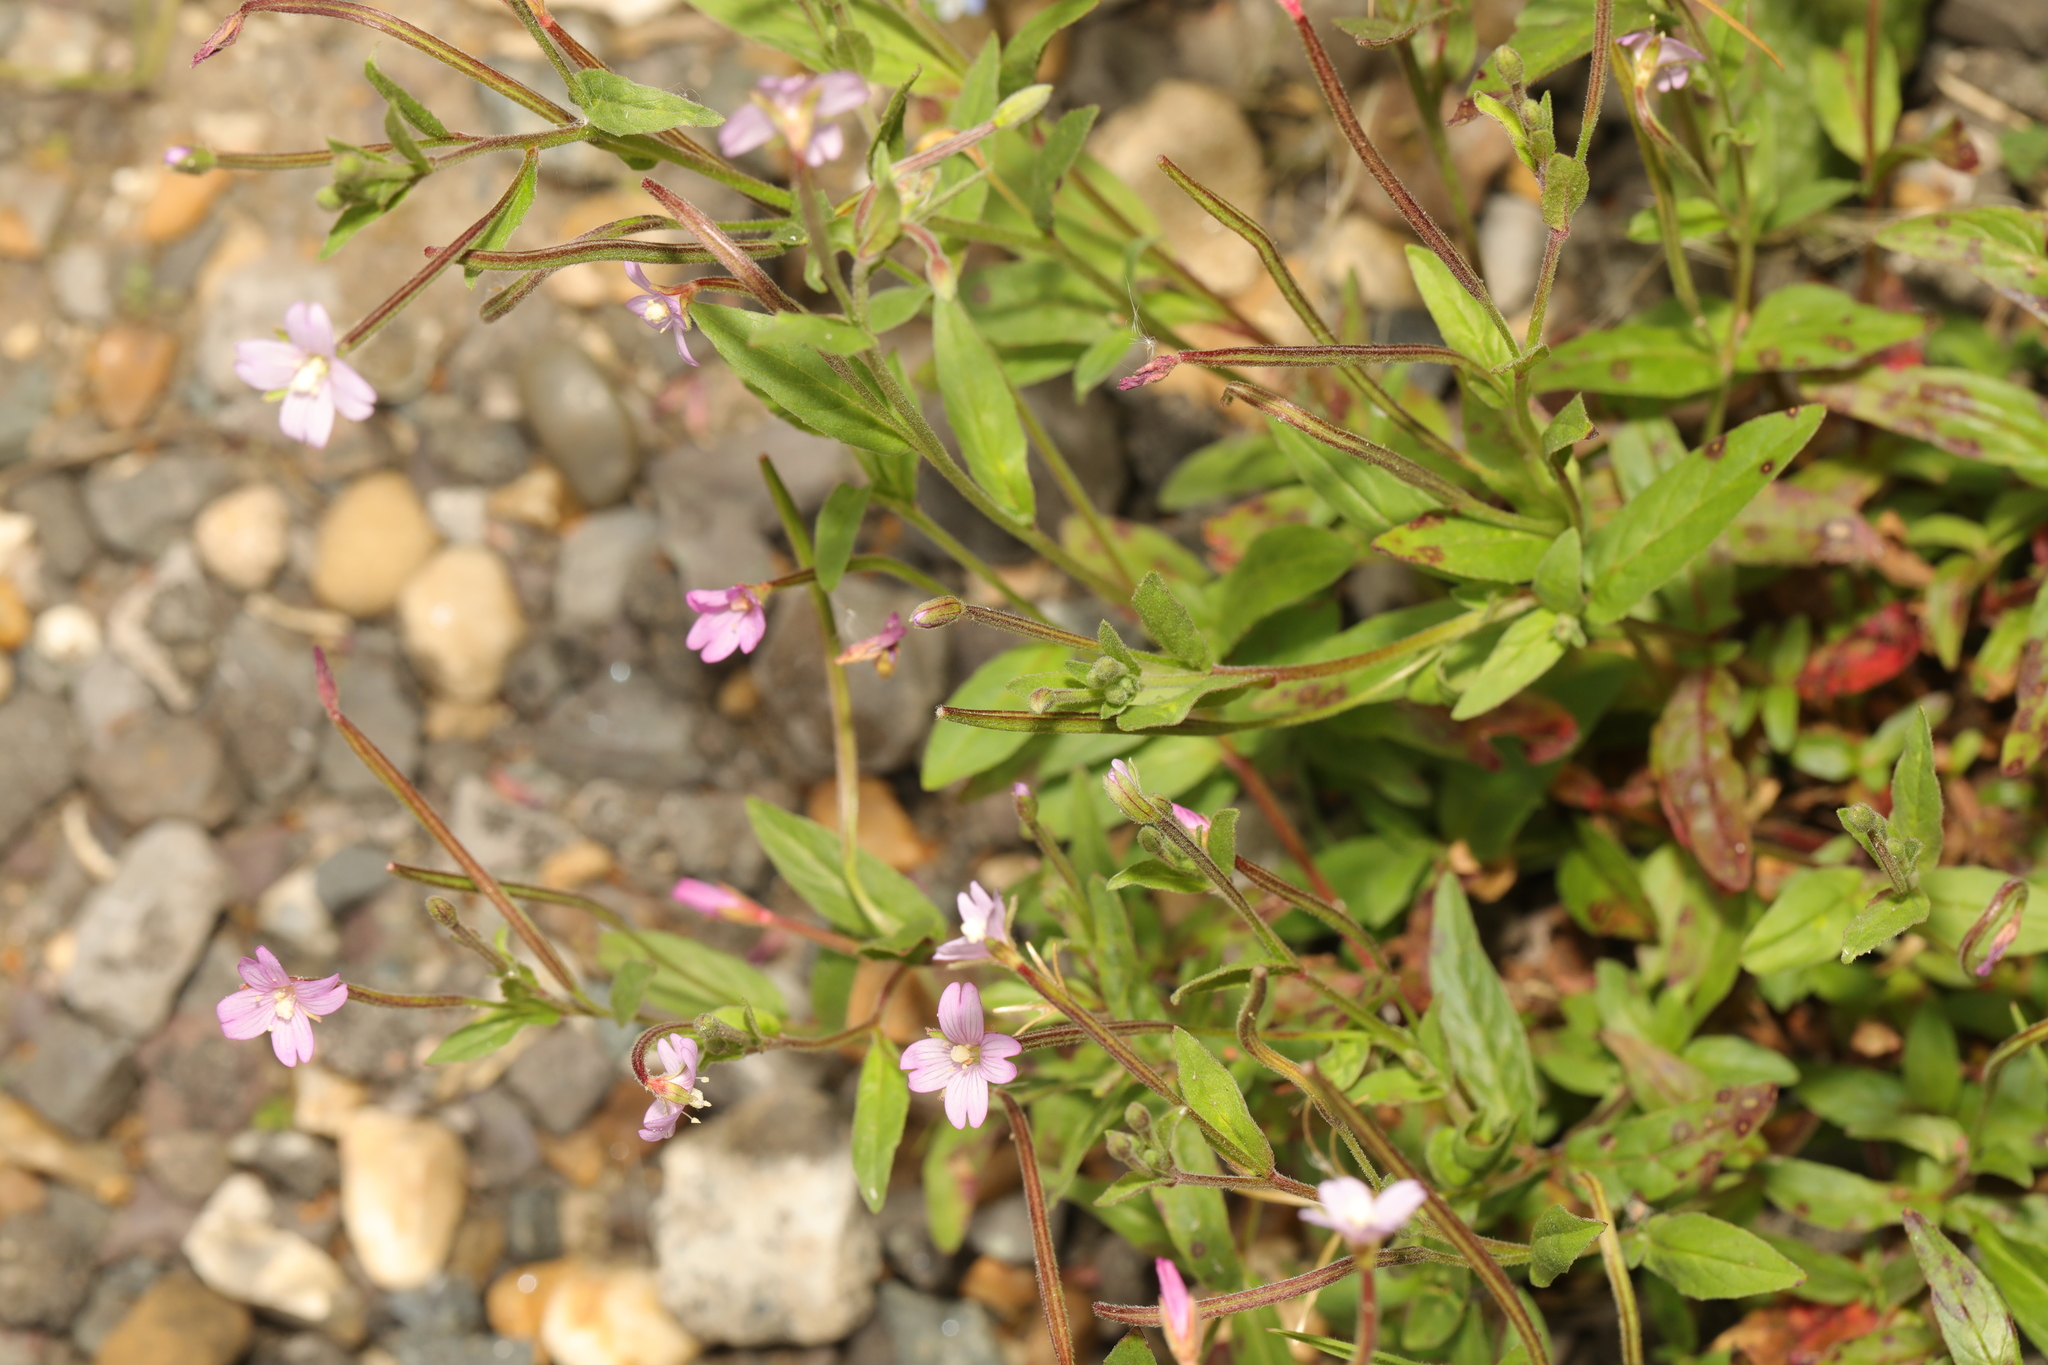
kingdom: Plantae
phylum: Tracheophyta
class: Magnoliopsida
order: Myrtales
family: Onagraceae
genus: Epilobium
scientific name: Epilobium obscurum
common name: Short-fruited willowherb
